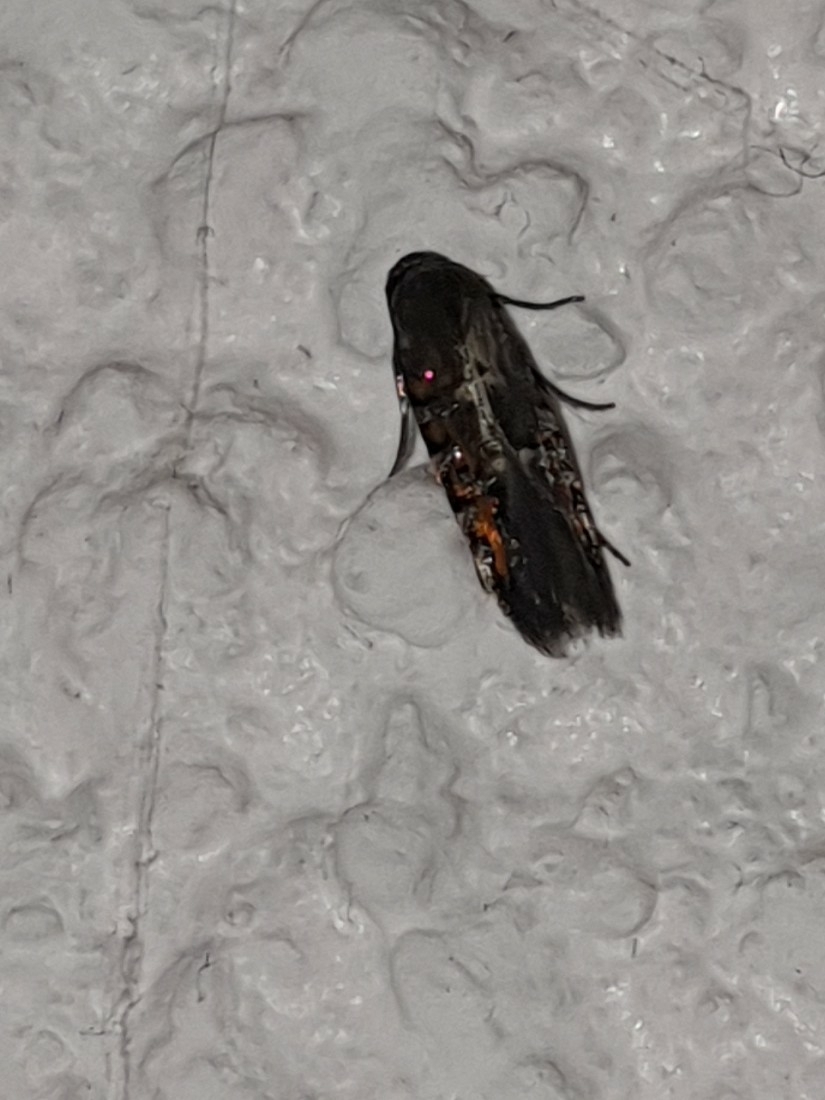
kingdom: Animalia
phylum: Arthropoda
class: Insecta
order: Lepidoptera
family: Heliodinidae
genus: Heliodines
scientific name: Heliodines roesella
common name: Roesel's signal
